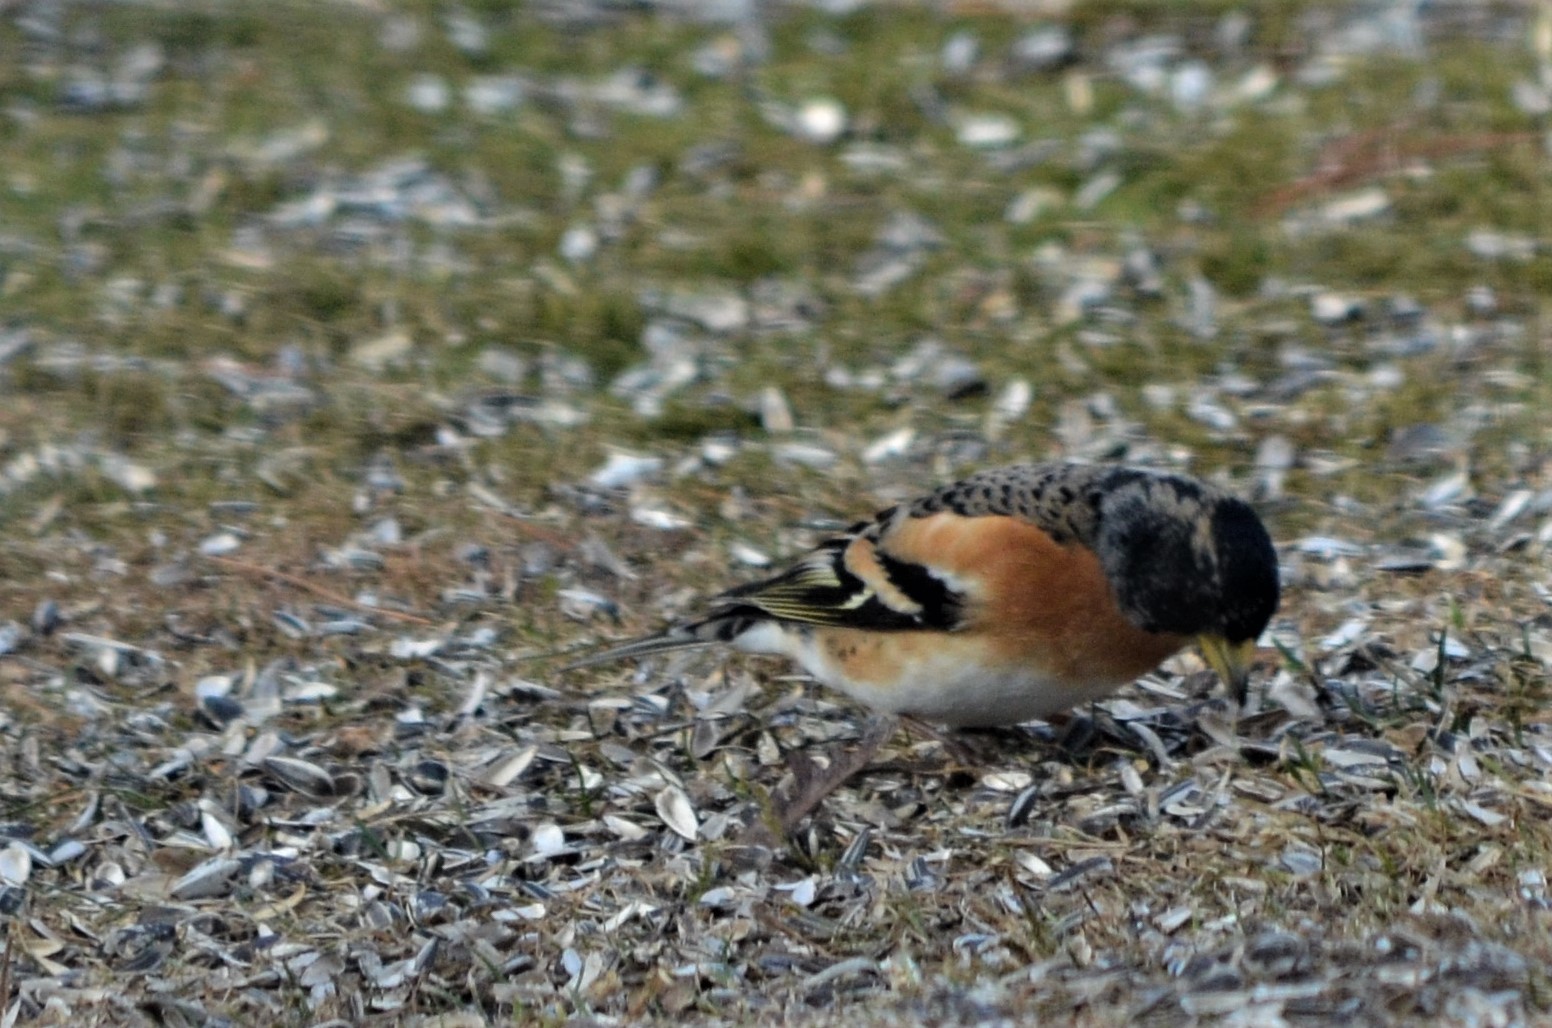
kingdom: Animalia
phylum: Chordata
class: Aves
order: Passeriformes
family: Fringillidae
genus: Fringilla
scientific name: Fringilla montifringilla
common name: Brambling
